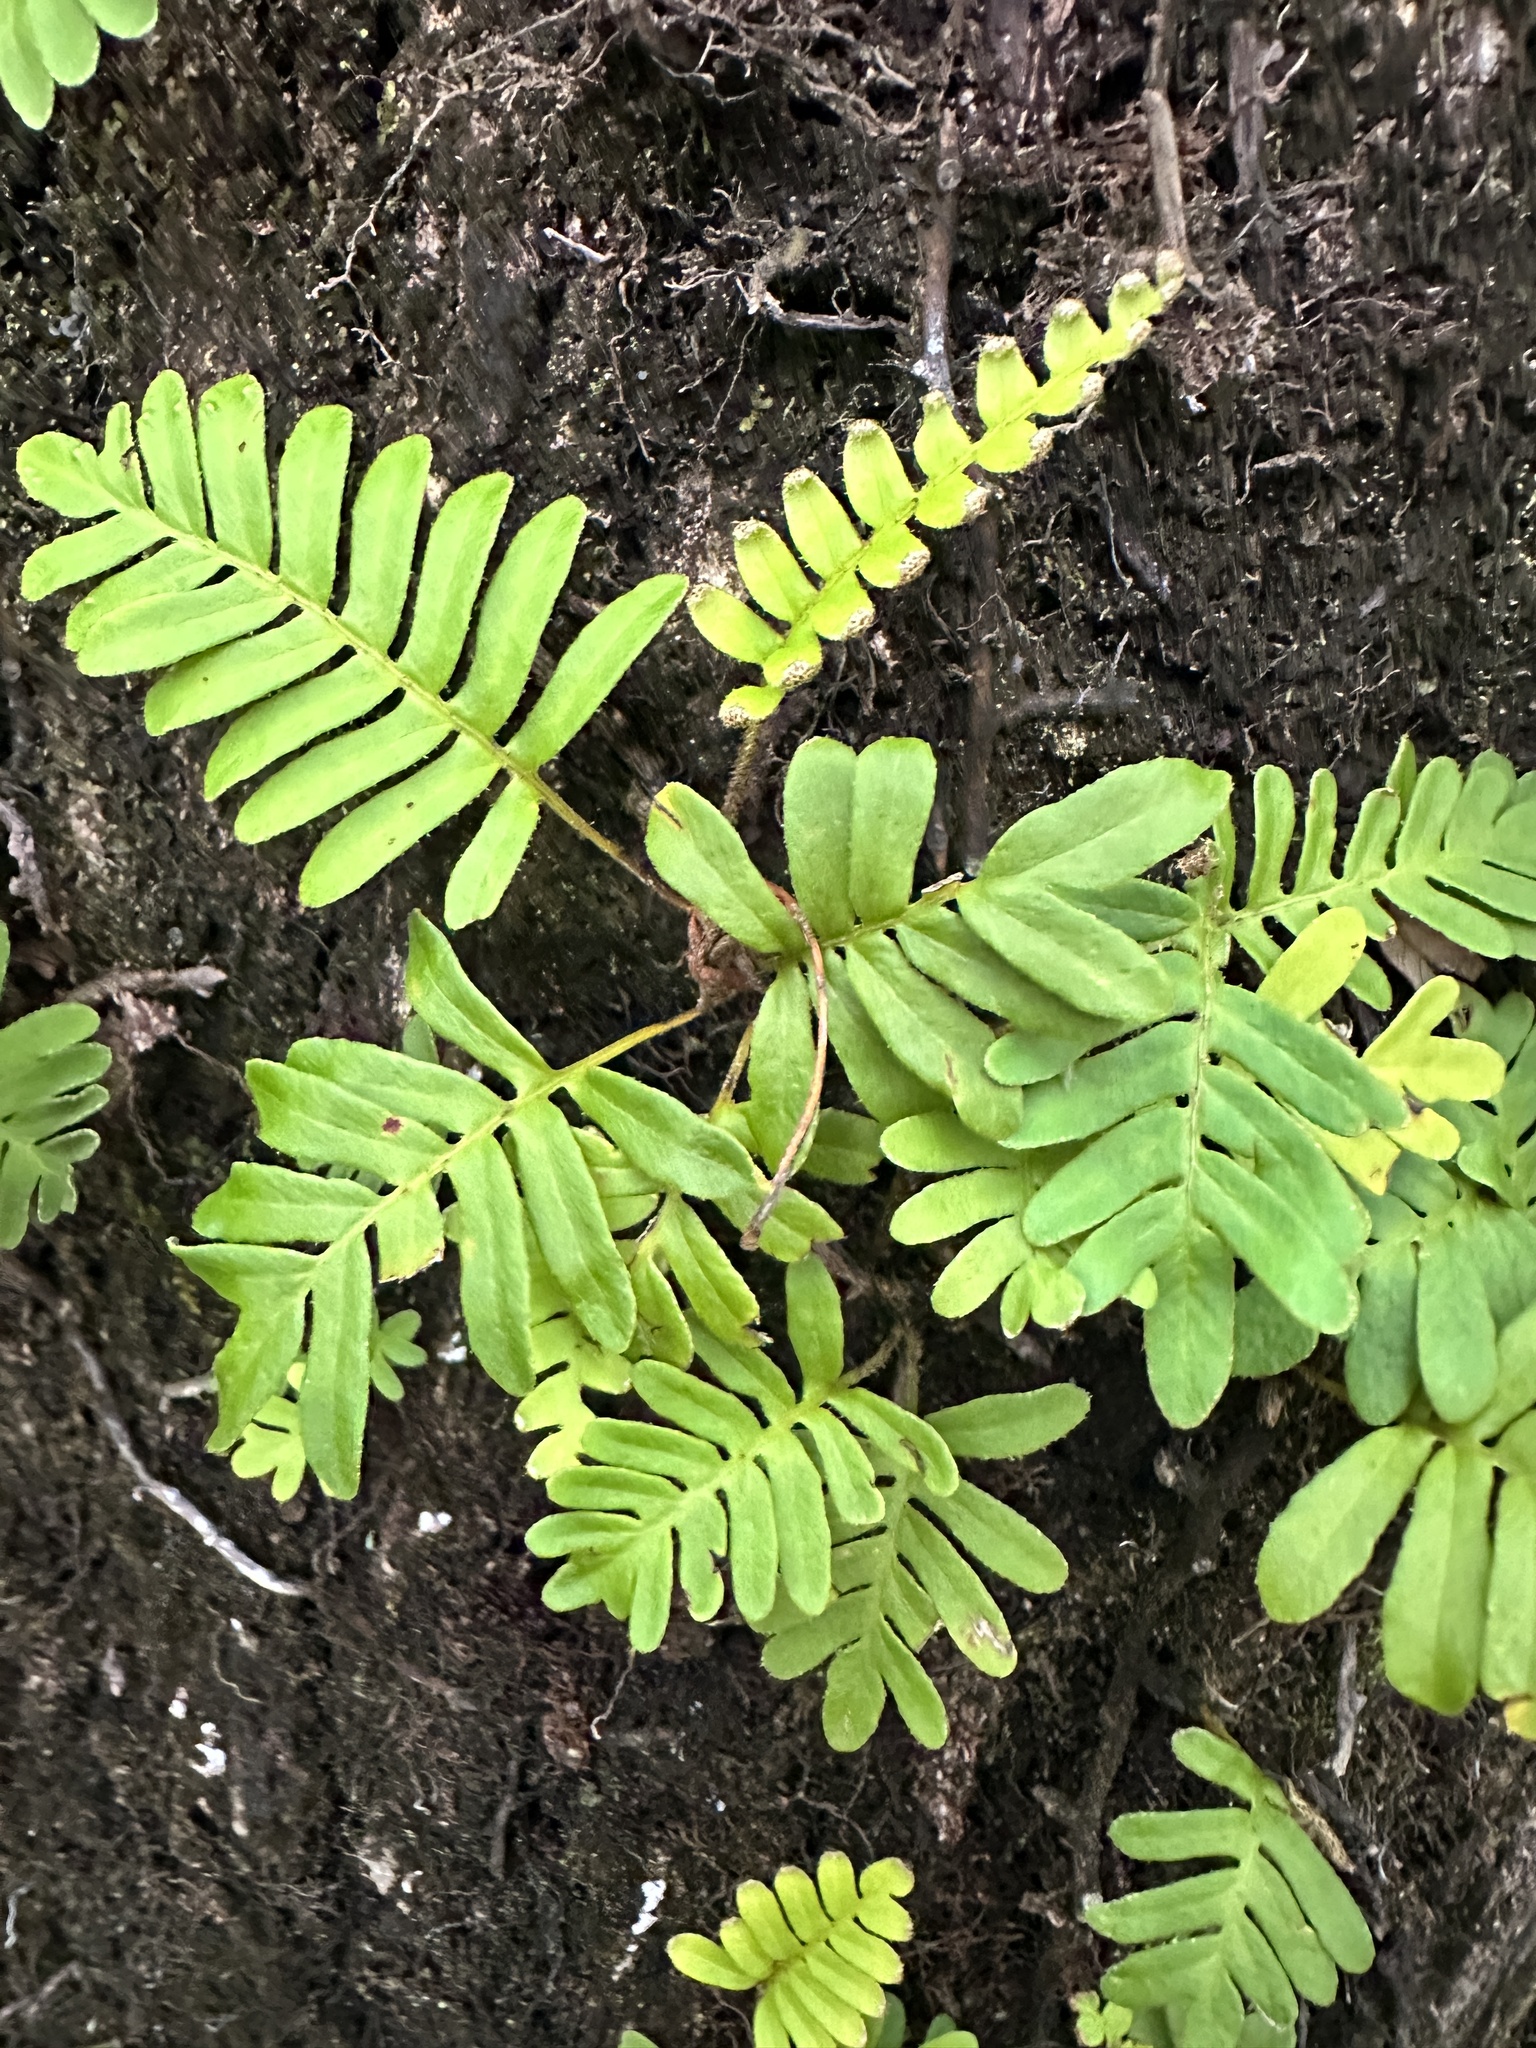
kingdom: Plantae
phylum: Tracheophyta
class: Polypodiopsida
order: Polypodiales
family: Polypodiaceae
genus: Pleopeltis
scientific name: Pleopeltis michauxiana
